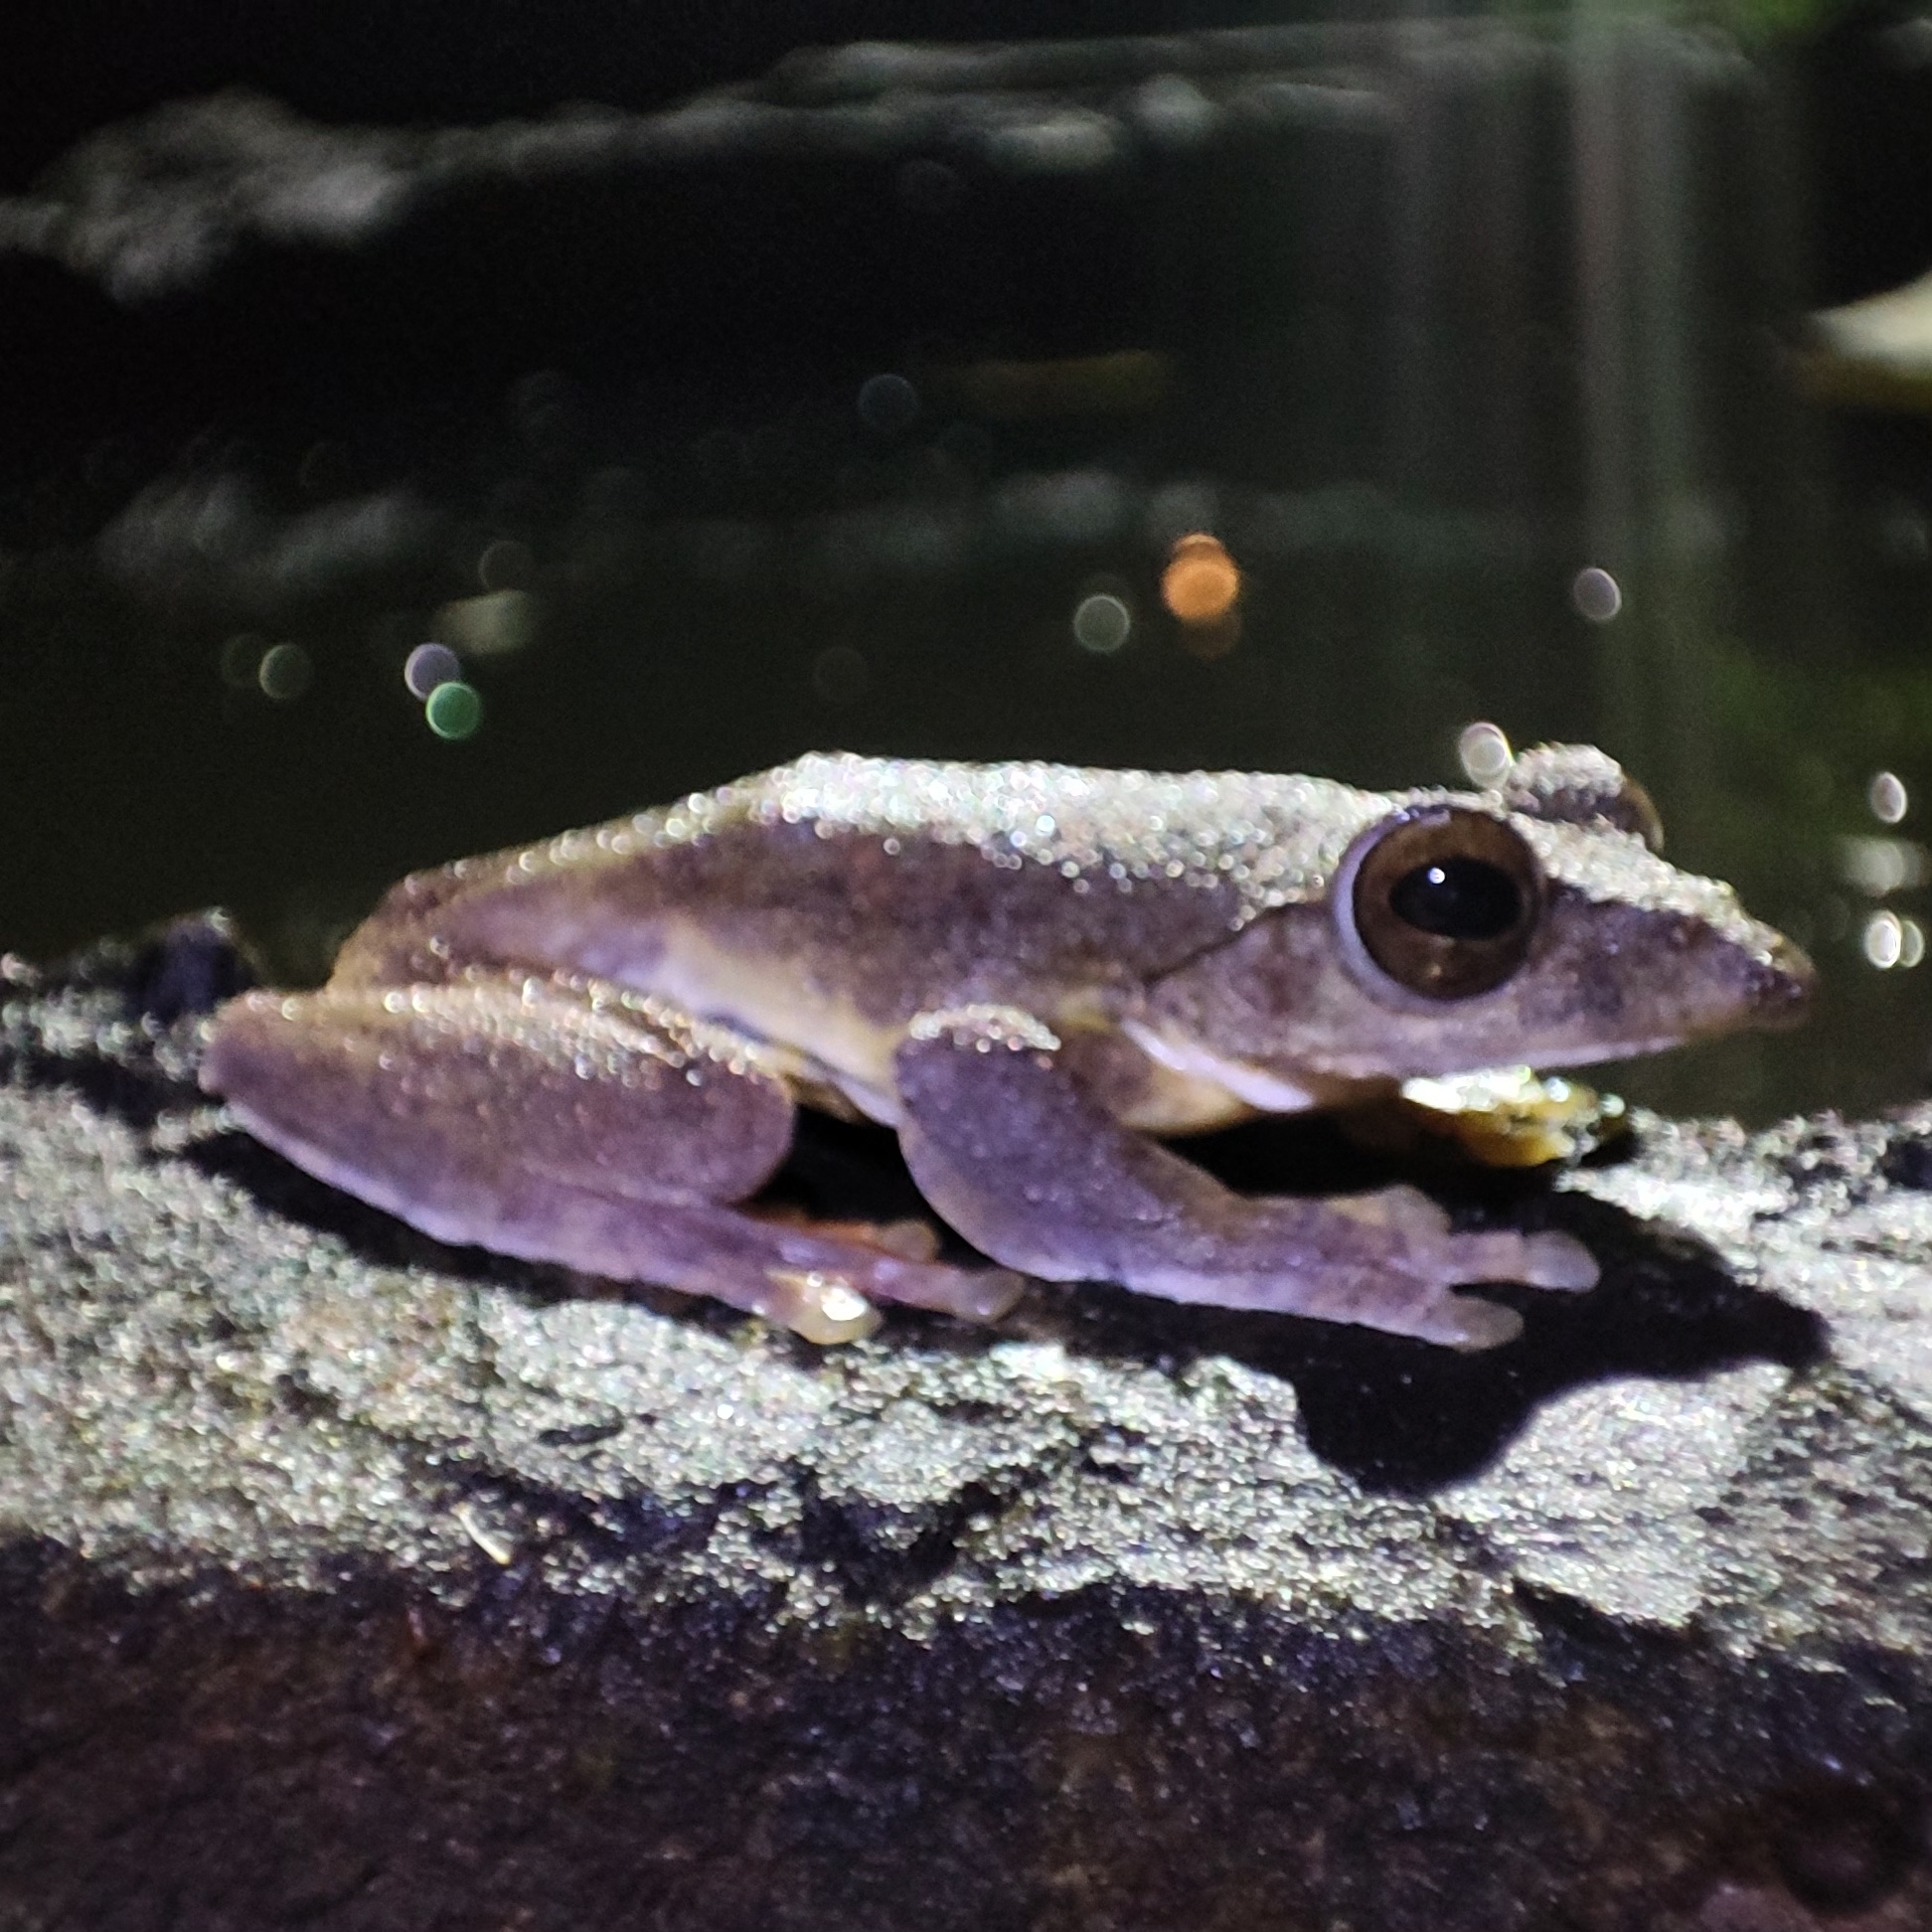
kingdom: Animalia
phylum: Chordata
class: Amphibia
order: Anura
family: Rhacophoridae
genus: Rhacophorus
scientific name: Rhacophorus annamensis
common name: Annam flying frog
